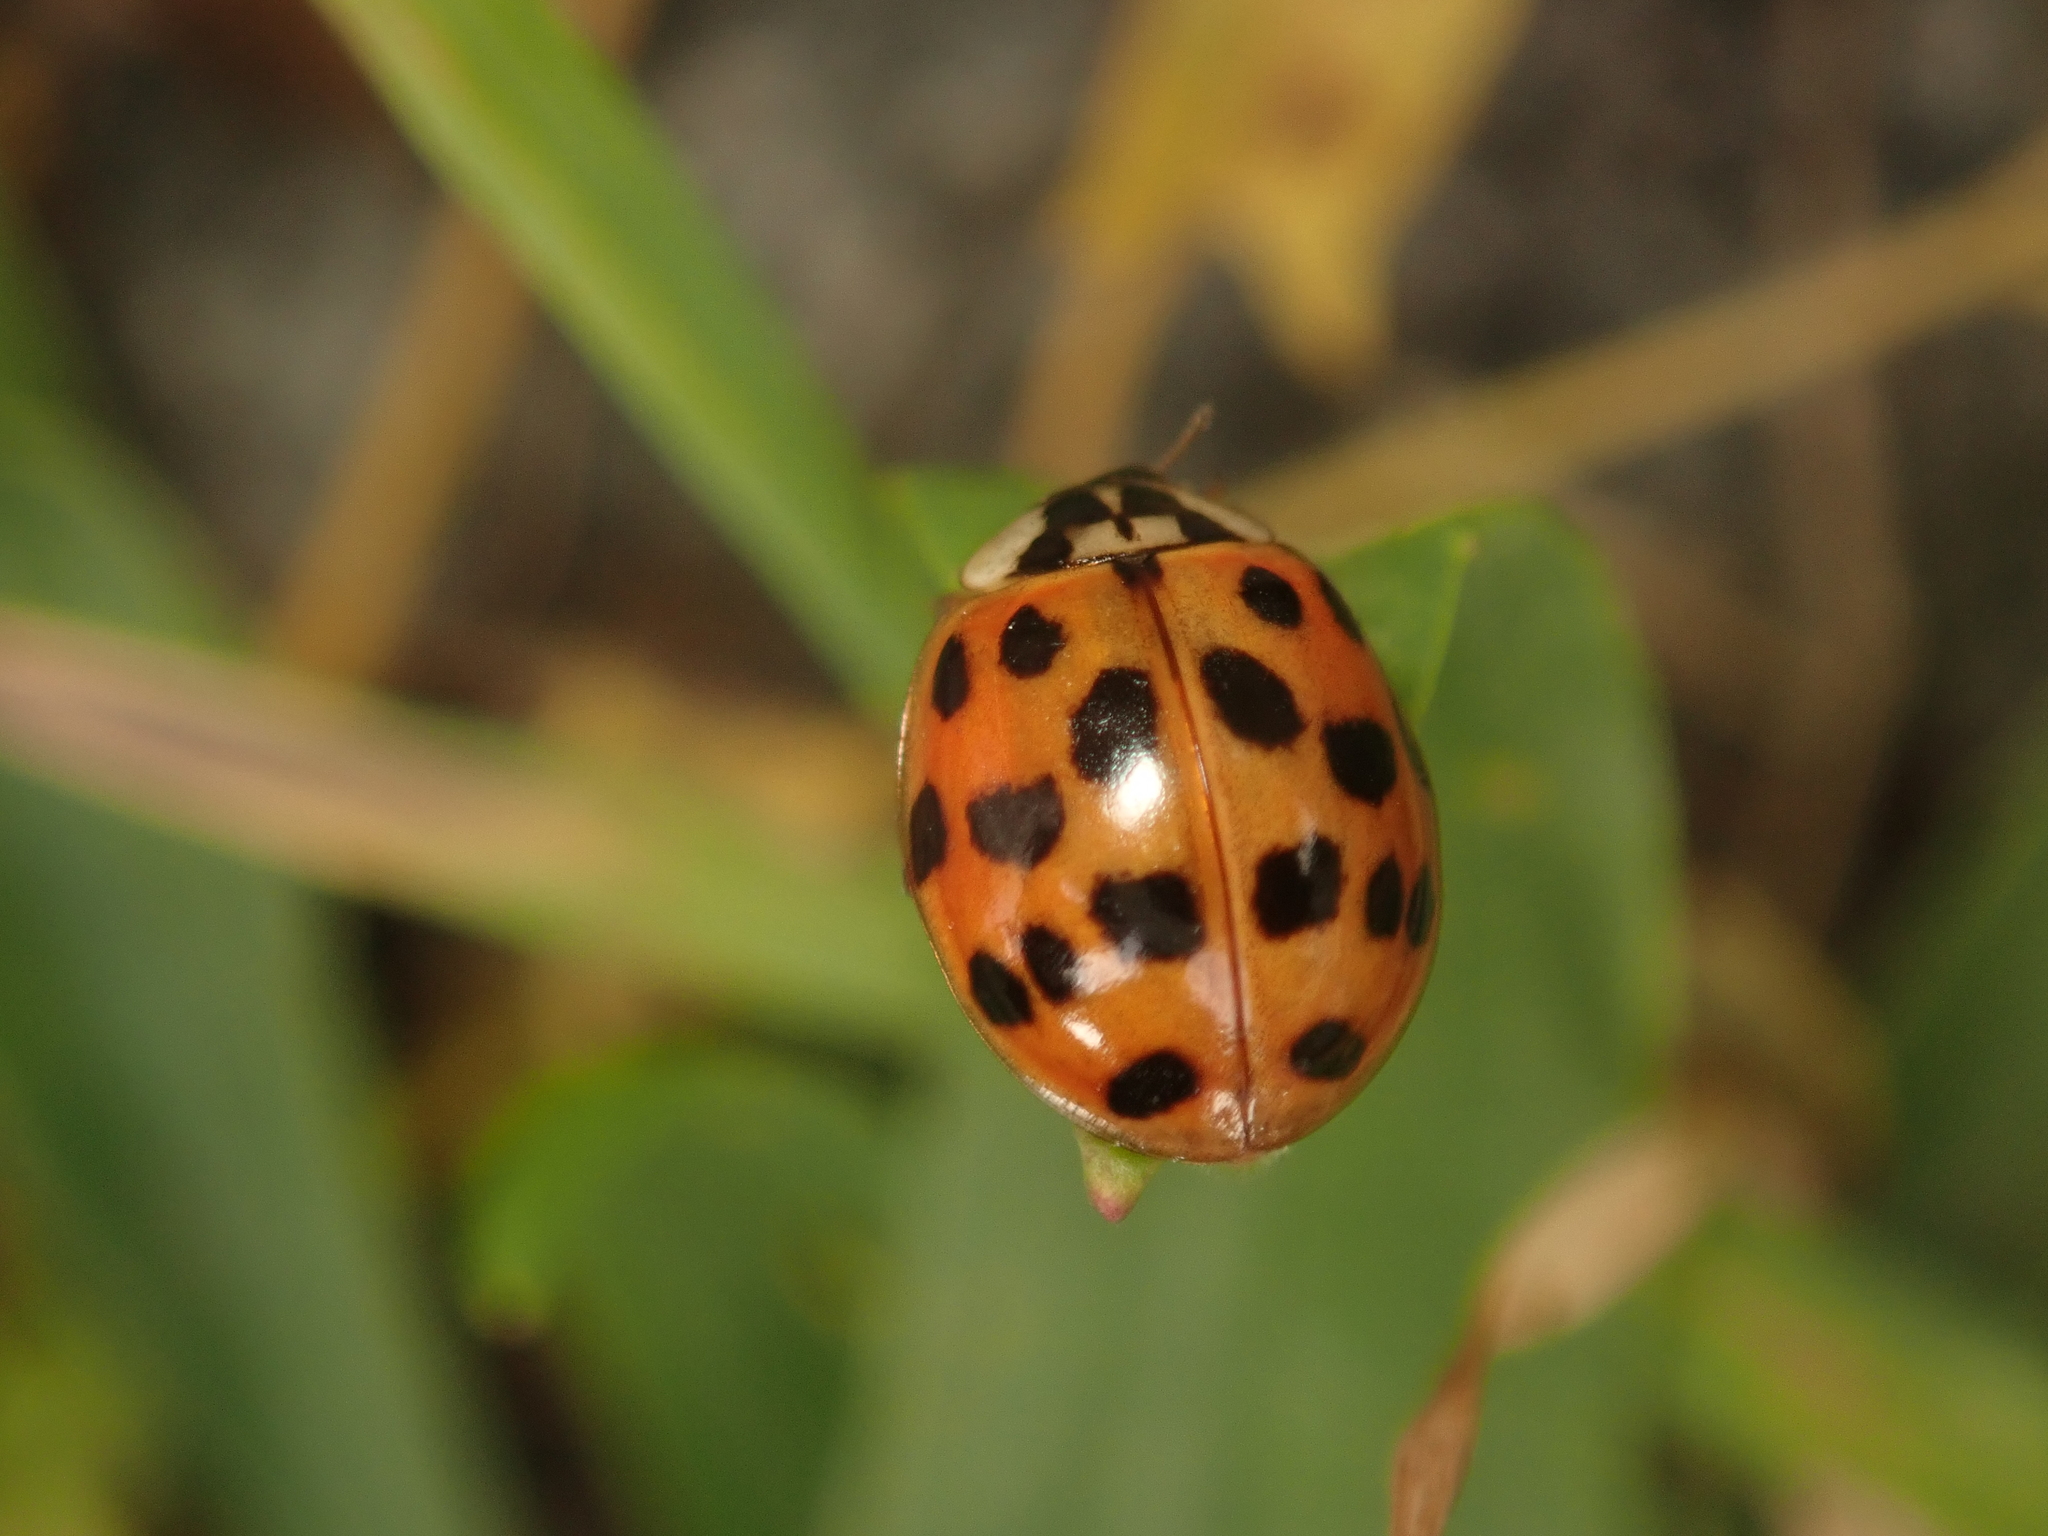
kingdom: Animalia
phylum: Arthropoda
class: Insecta
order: Coleoptera
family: Coccinellidae
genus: Harmonia
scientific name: Harmonia axyridis
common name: Harlequin ladybird
